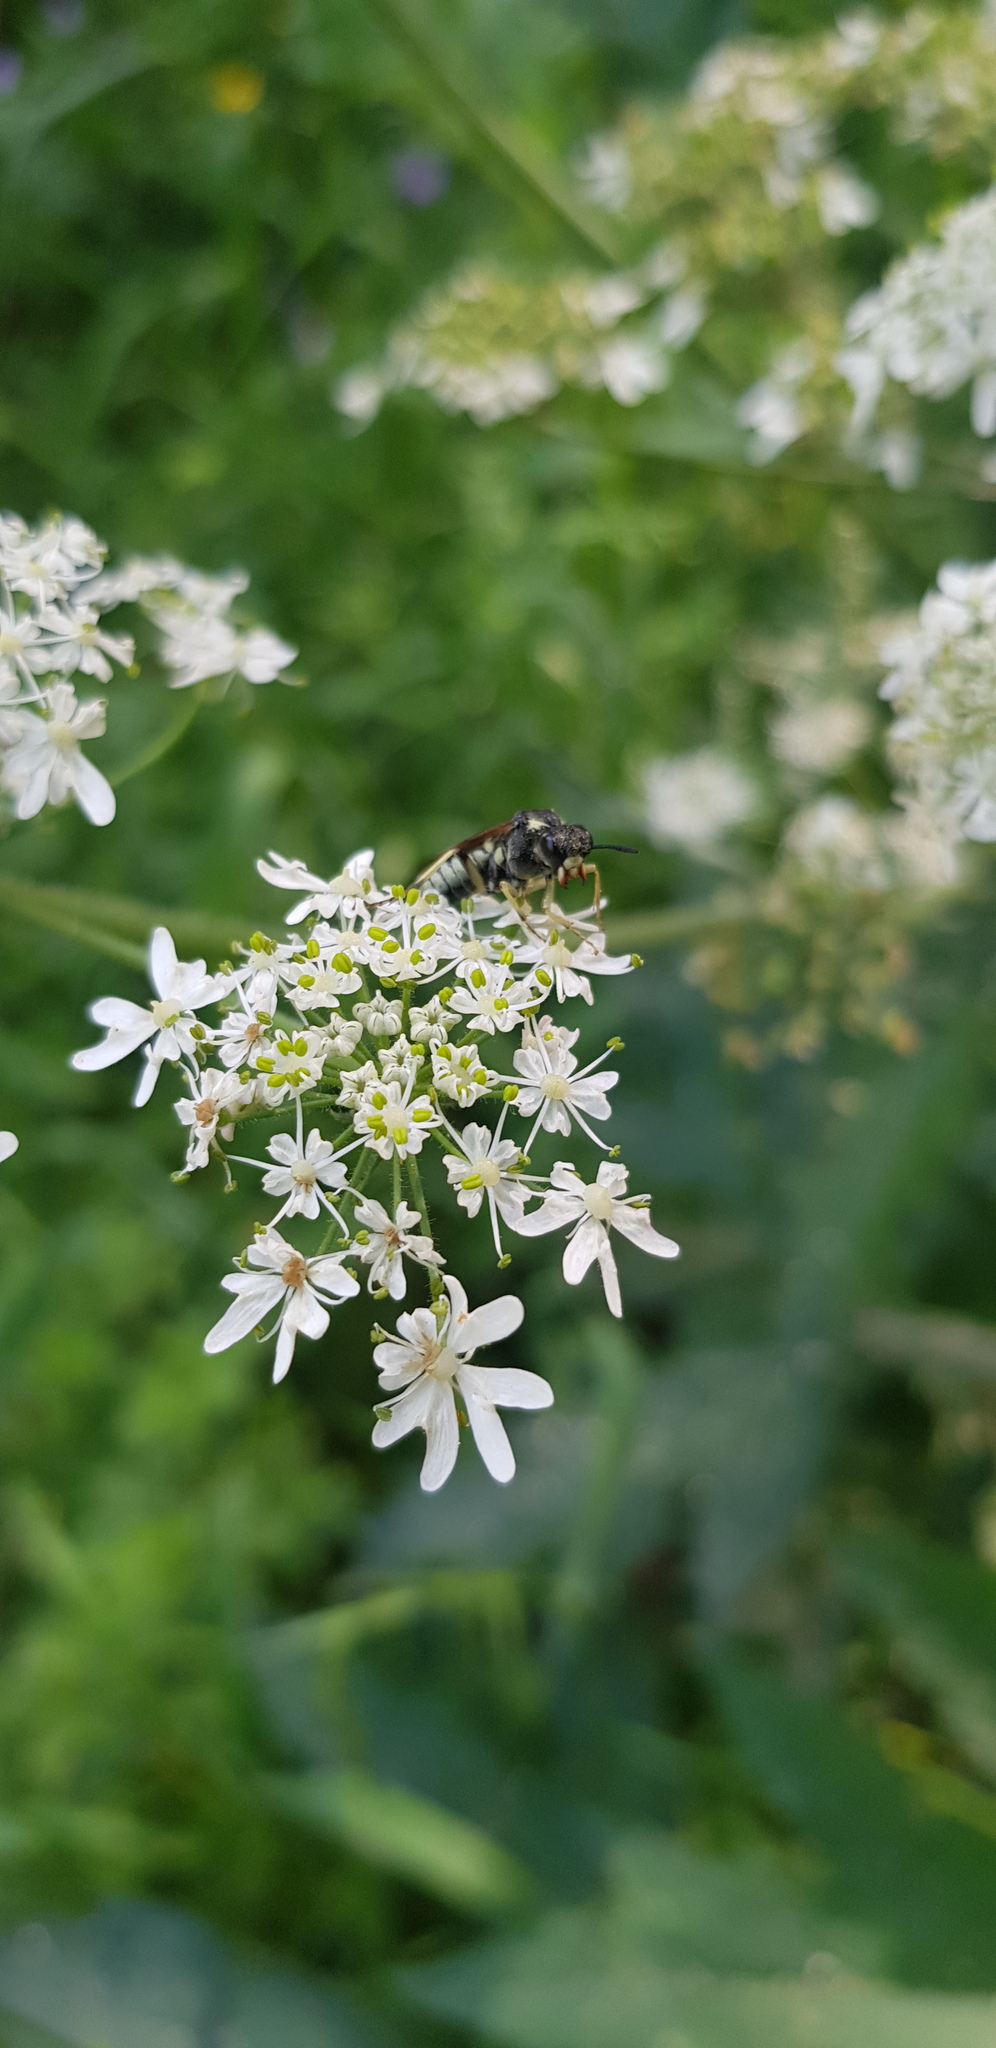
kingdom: Plantae
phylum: Tracheophyta
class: Magnoliopsida
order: Apiales
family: Apiaceae
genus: Heracleum
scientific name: Heracleum dissectum
